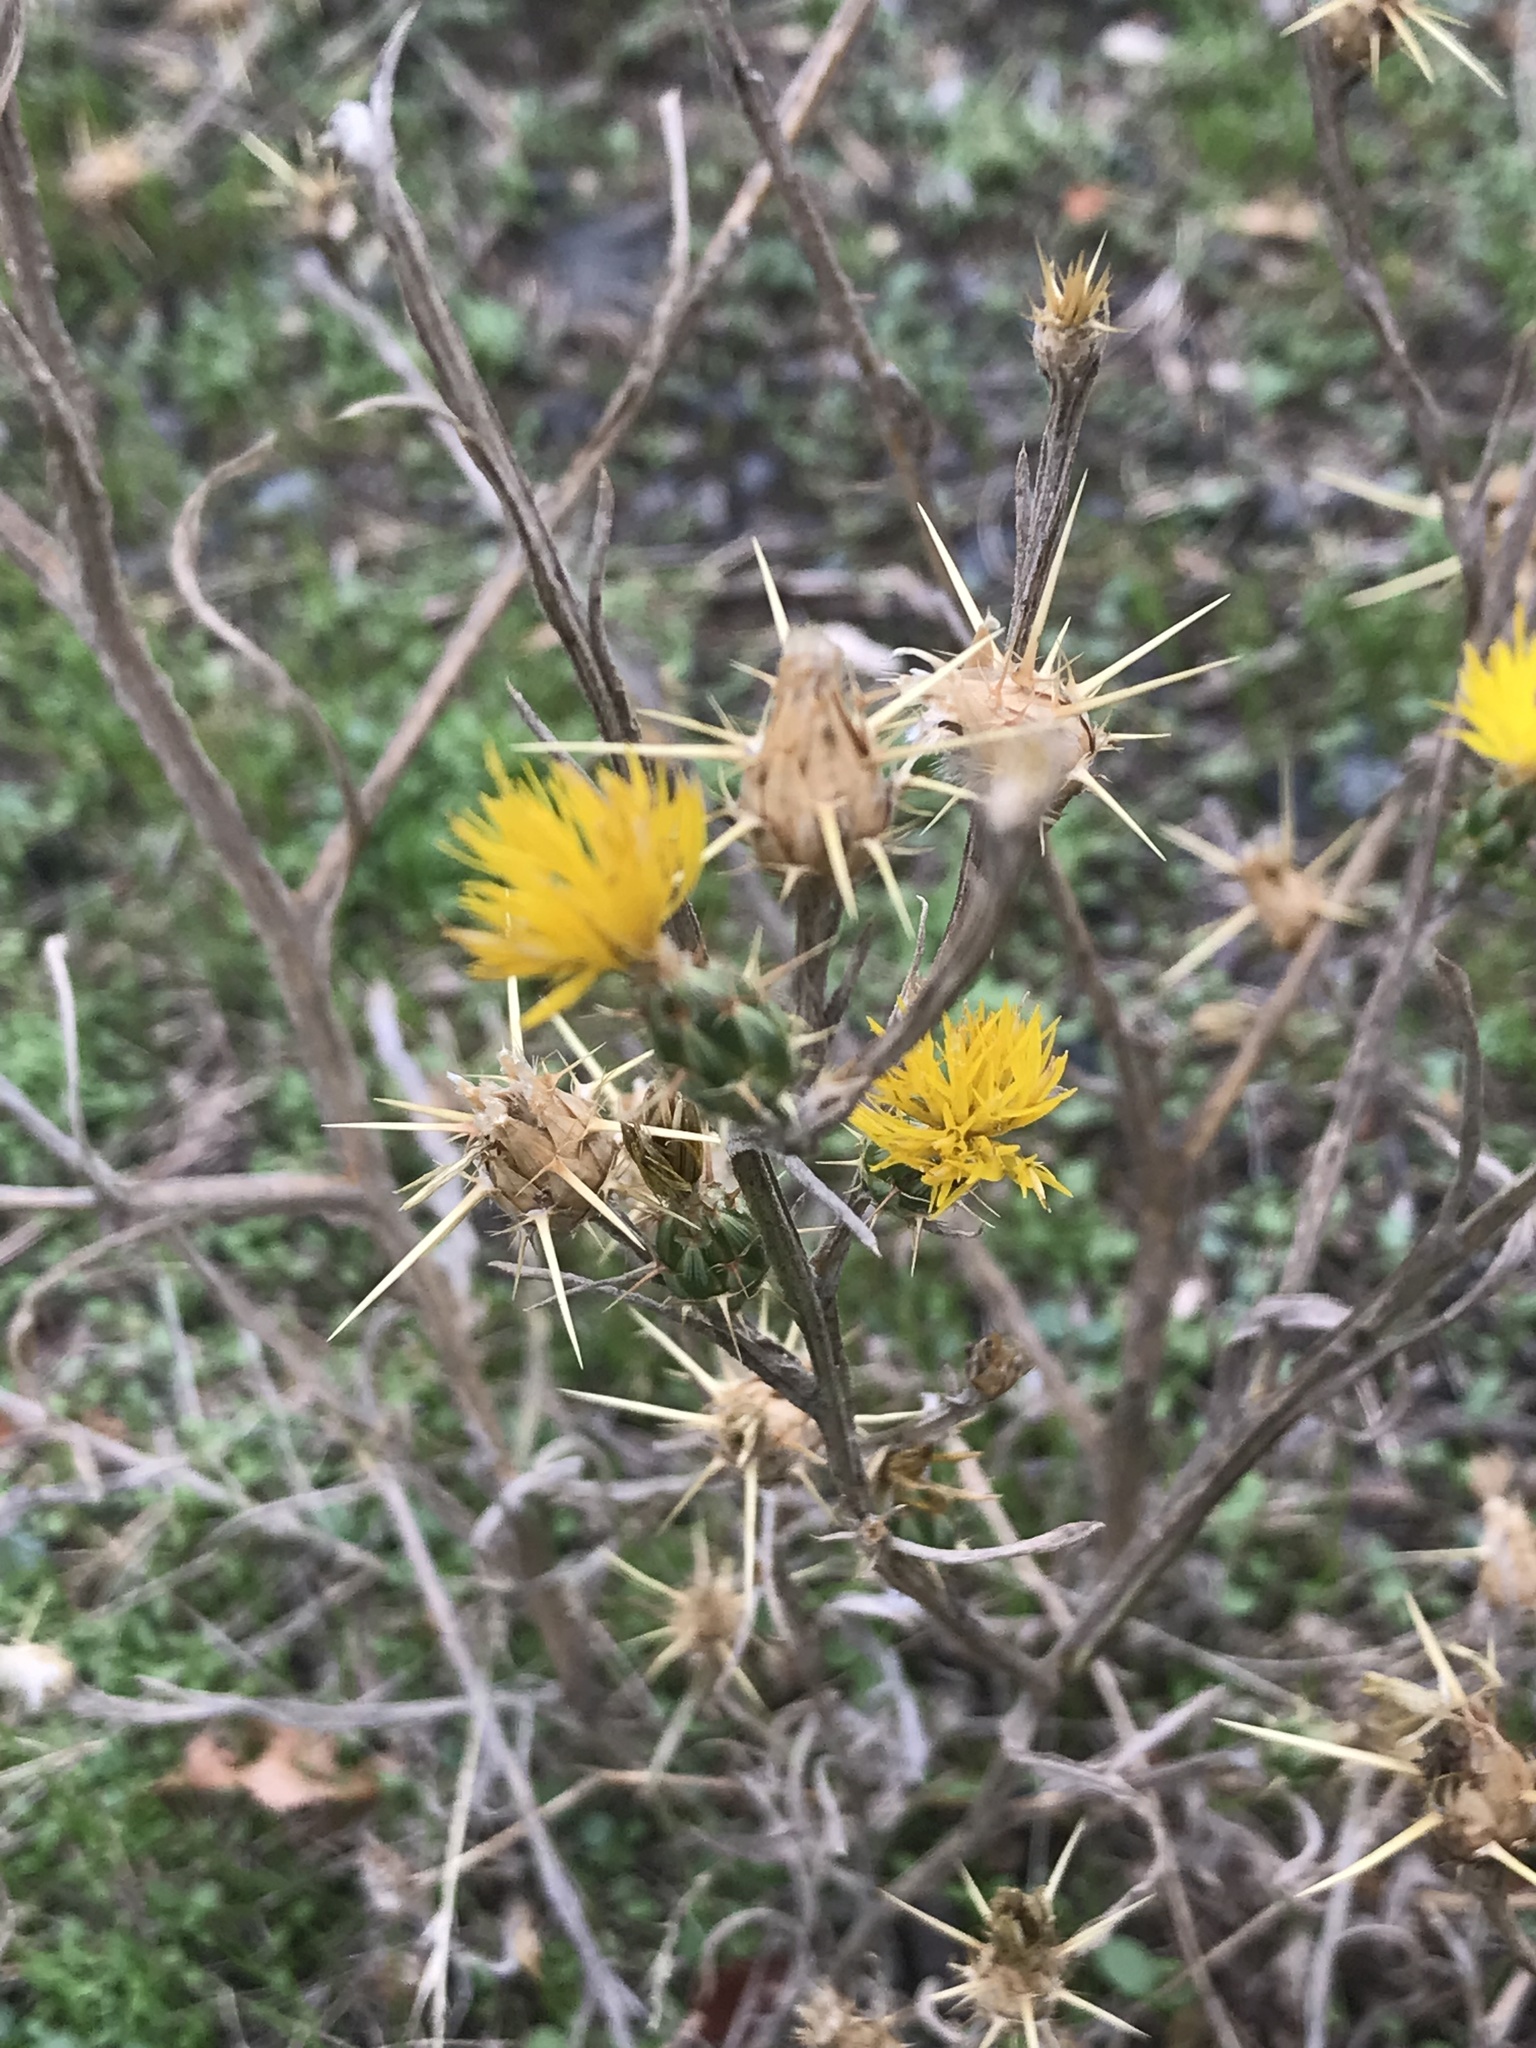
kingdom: Plantae
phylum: Tracheophyta
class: Magnoliopsida
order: Asterales
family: Asteraceae
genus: Centaurea
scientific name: Centaurea solstitialis
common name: Yellow star-thistle
